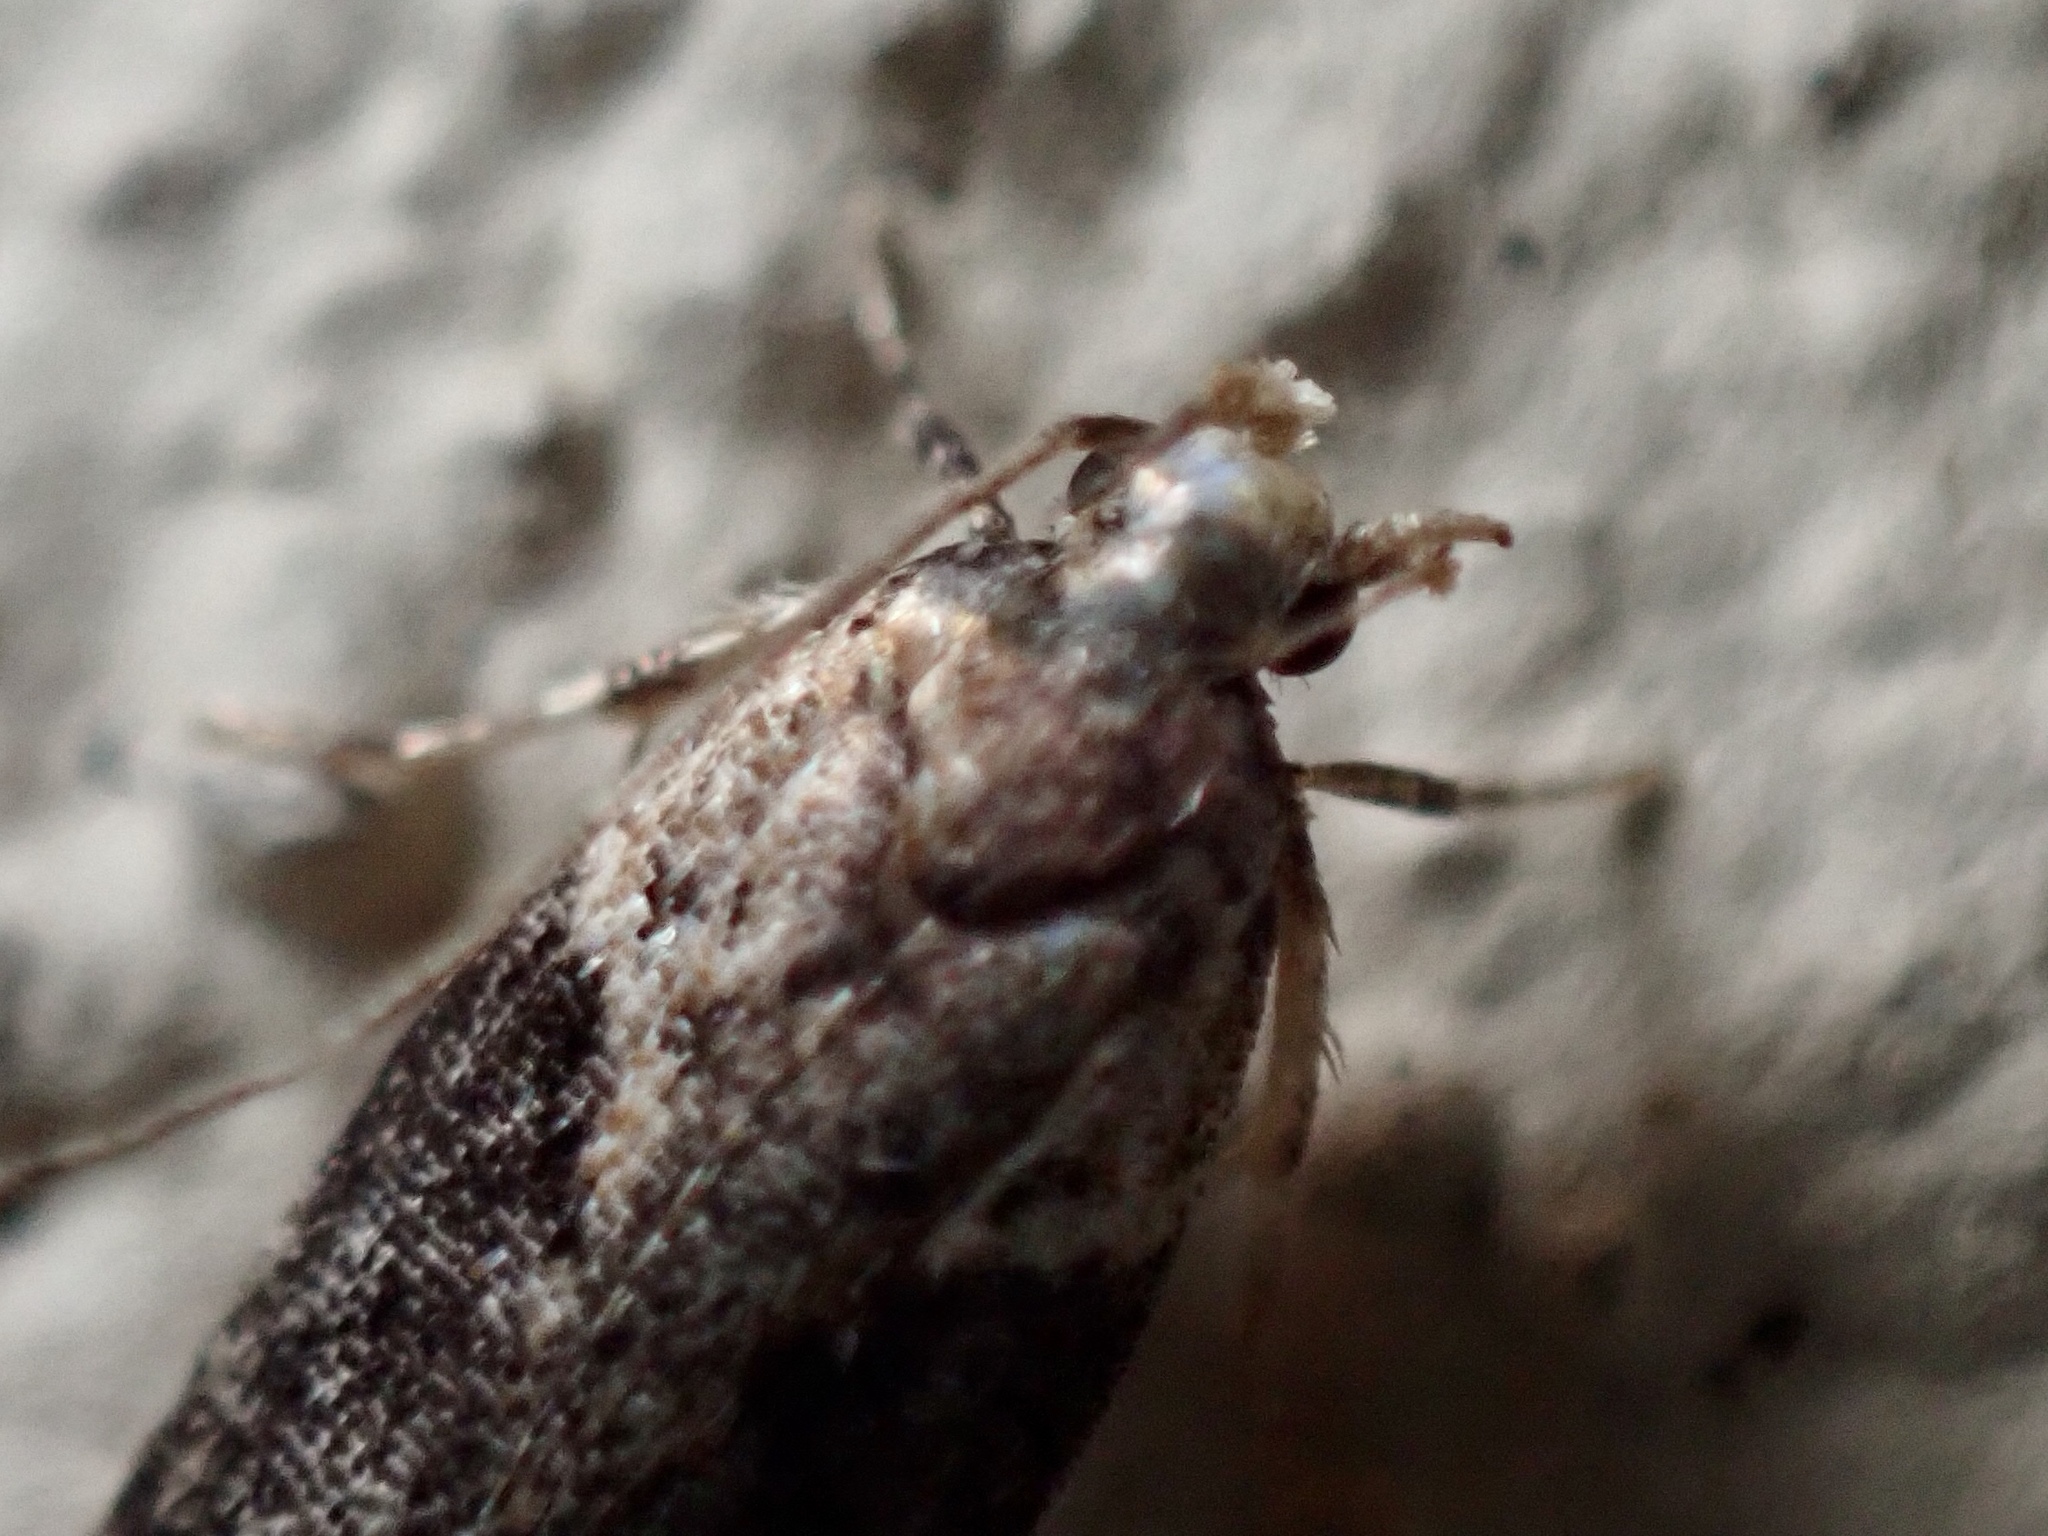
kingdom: Animalia
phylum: Arthropoda
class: Insecta
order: Lepidoptera
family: Gelechiidae
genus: Chionodes
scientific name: Chionodes mediofuscella
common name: Black-smudged chionodes moth
